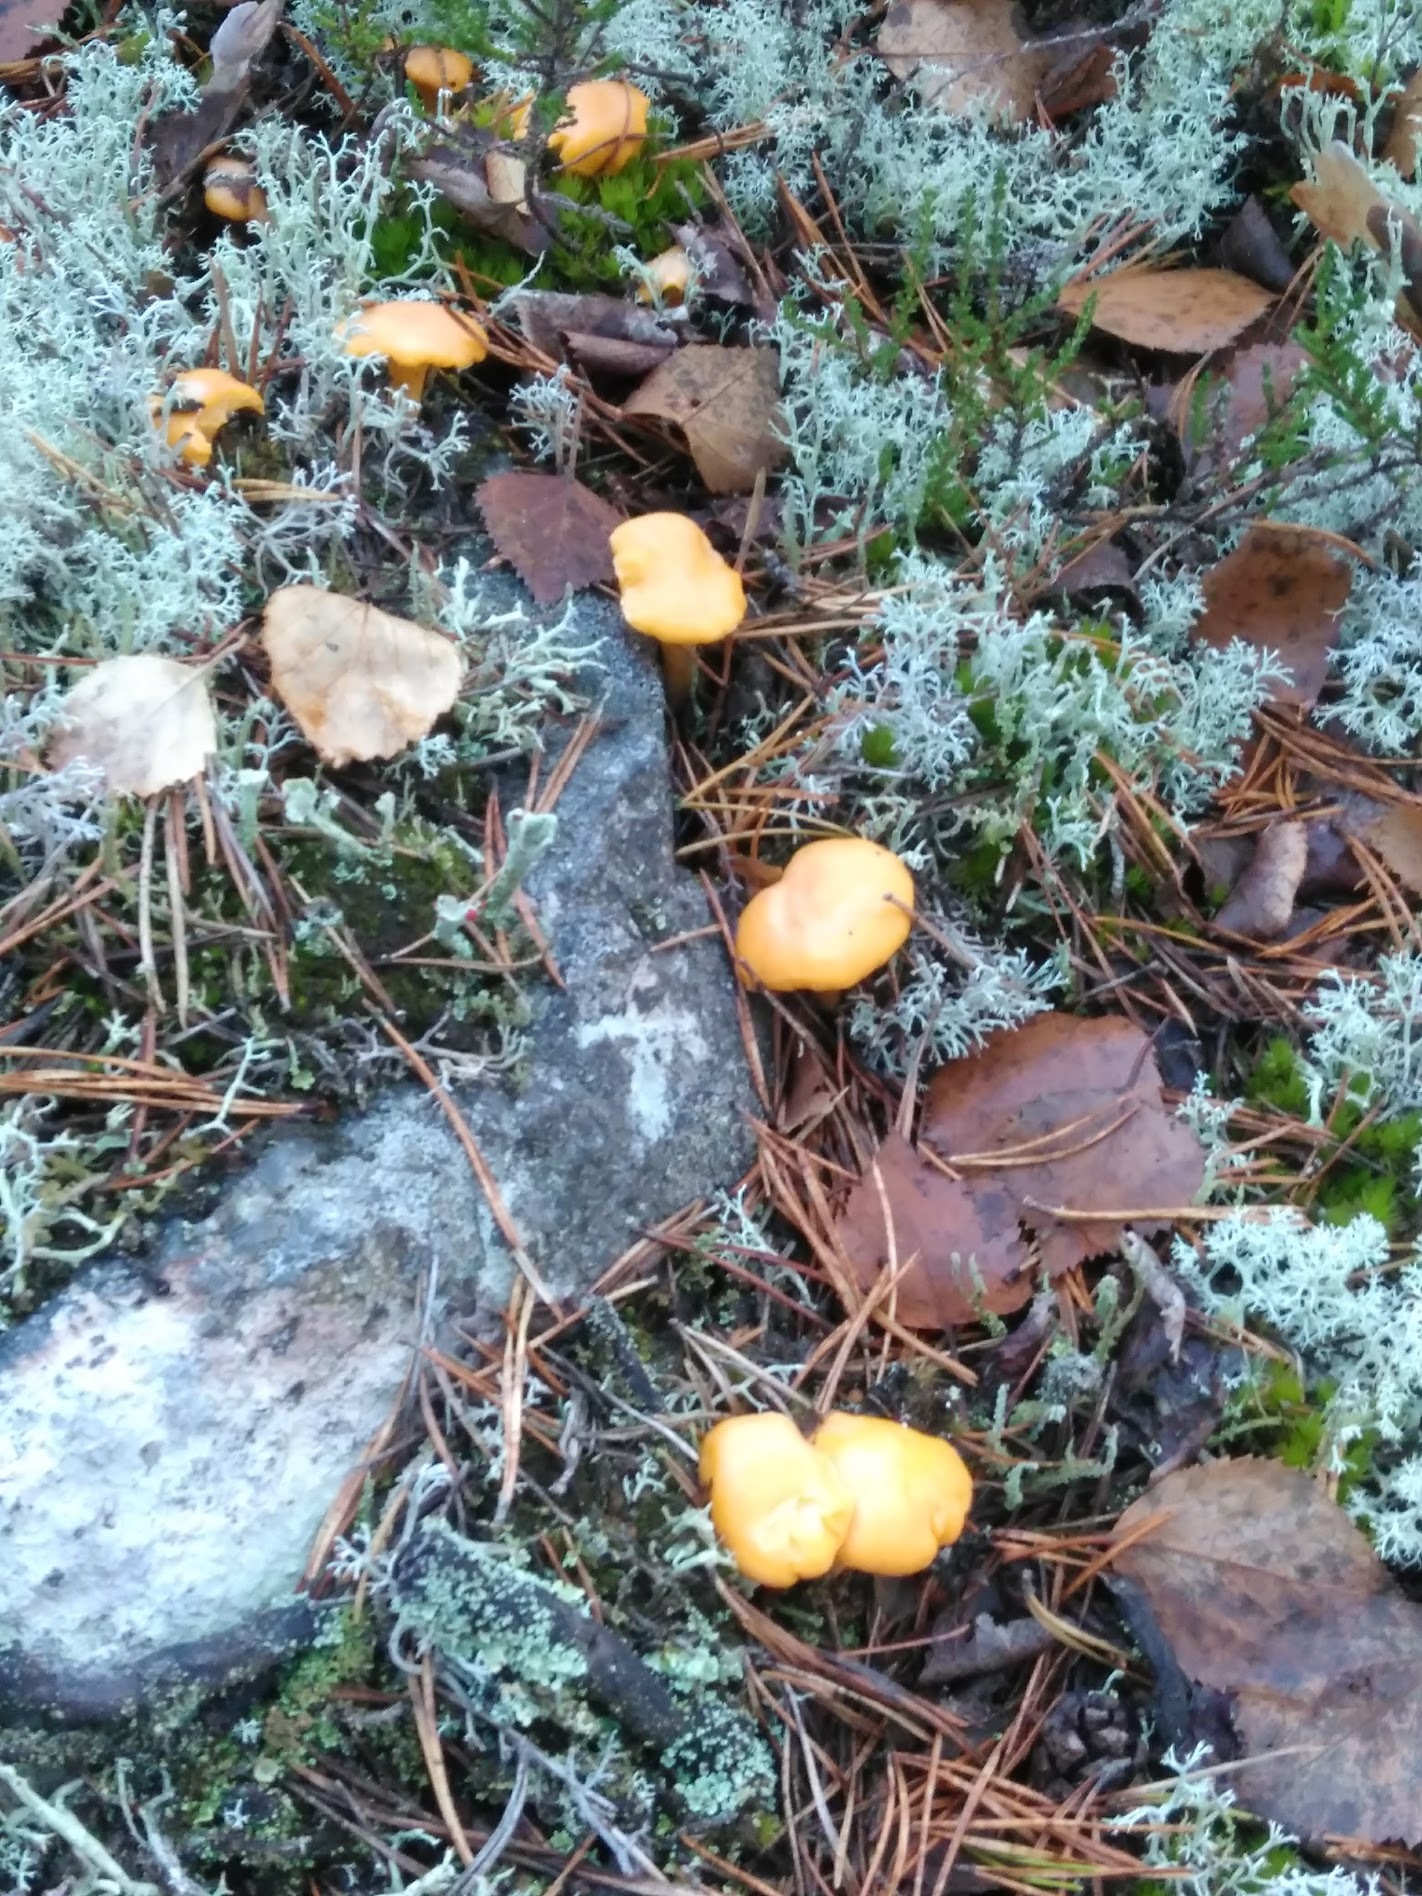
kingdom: Fungi
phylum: Basidiomycota
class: Agaricomycetes
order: Cantharellales
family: Hydnaceae
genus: Cantharellus
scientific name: Cantharellus cibarius
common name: Chanterelle
